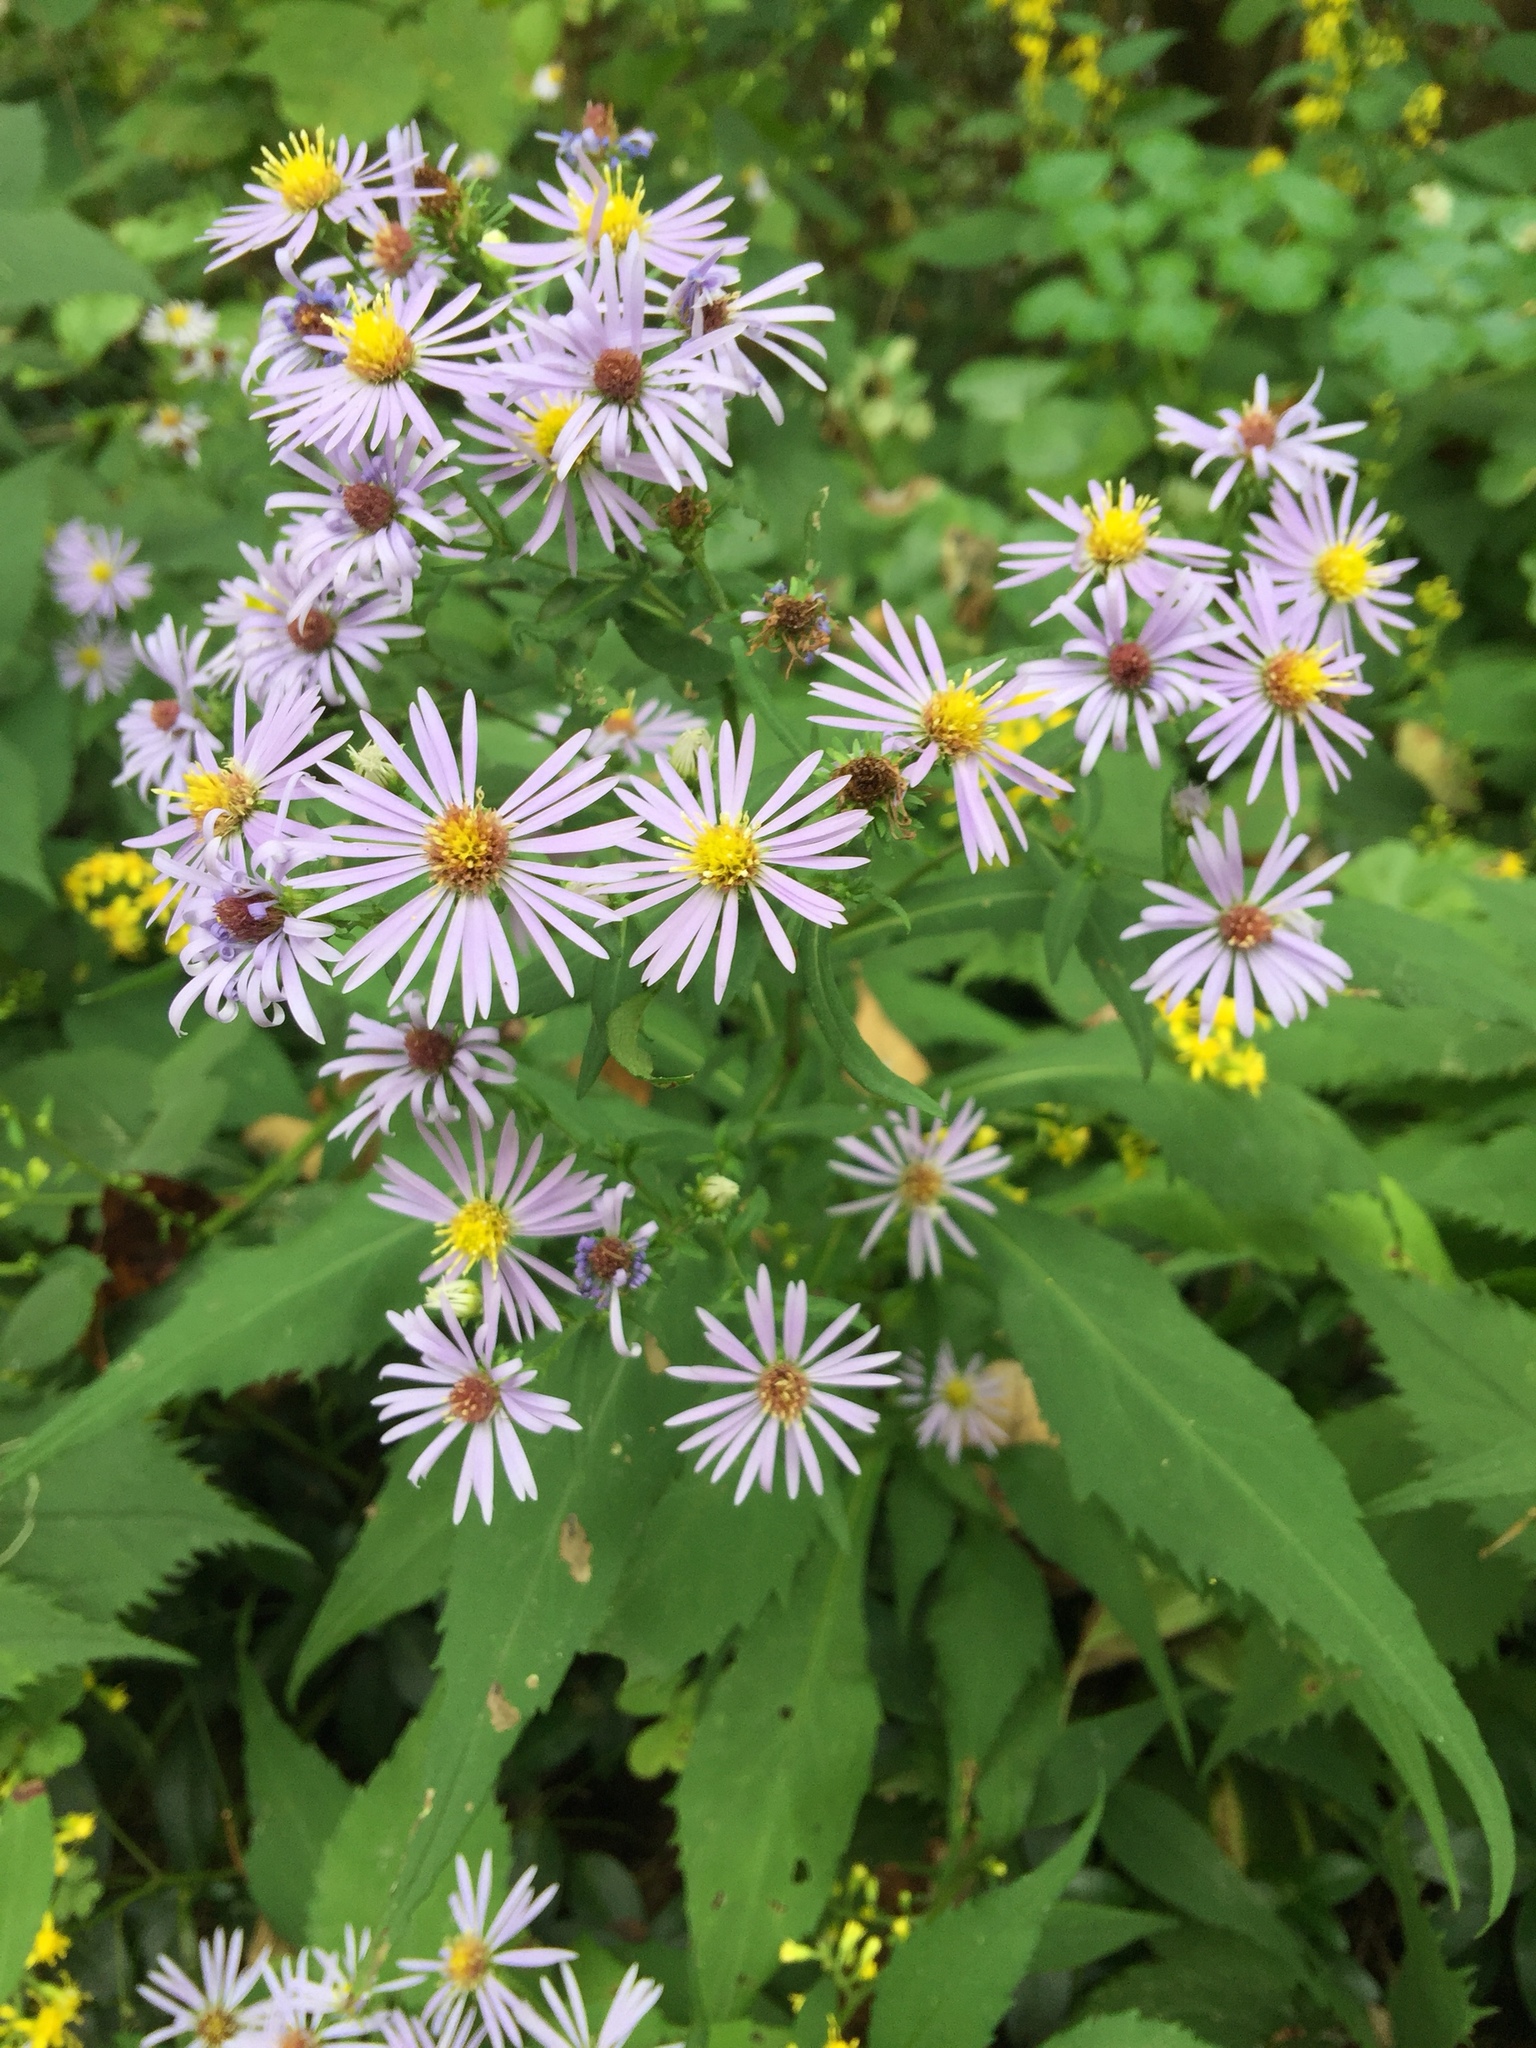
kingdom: Plantae
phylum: Tracheophyta
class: Magnoliopsida
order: Asterales
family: Asteraceae
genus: Symphyotrichum
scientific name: Symphyotrichum prenanthoides
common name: Crooked-stem aster
